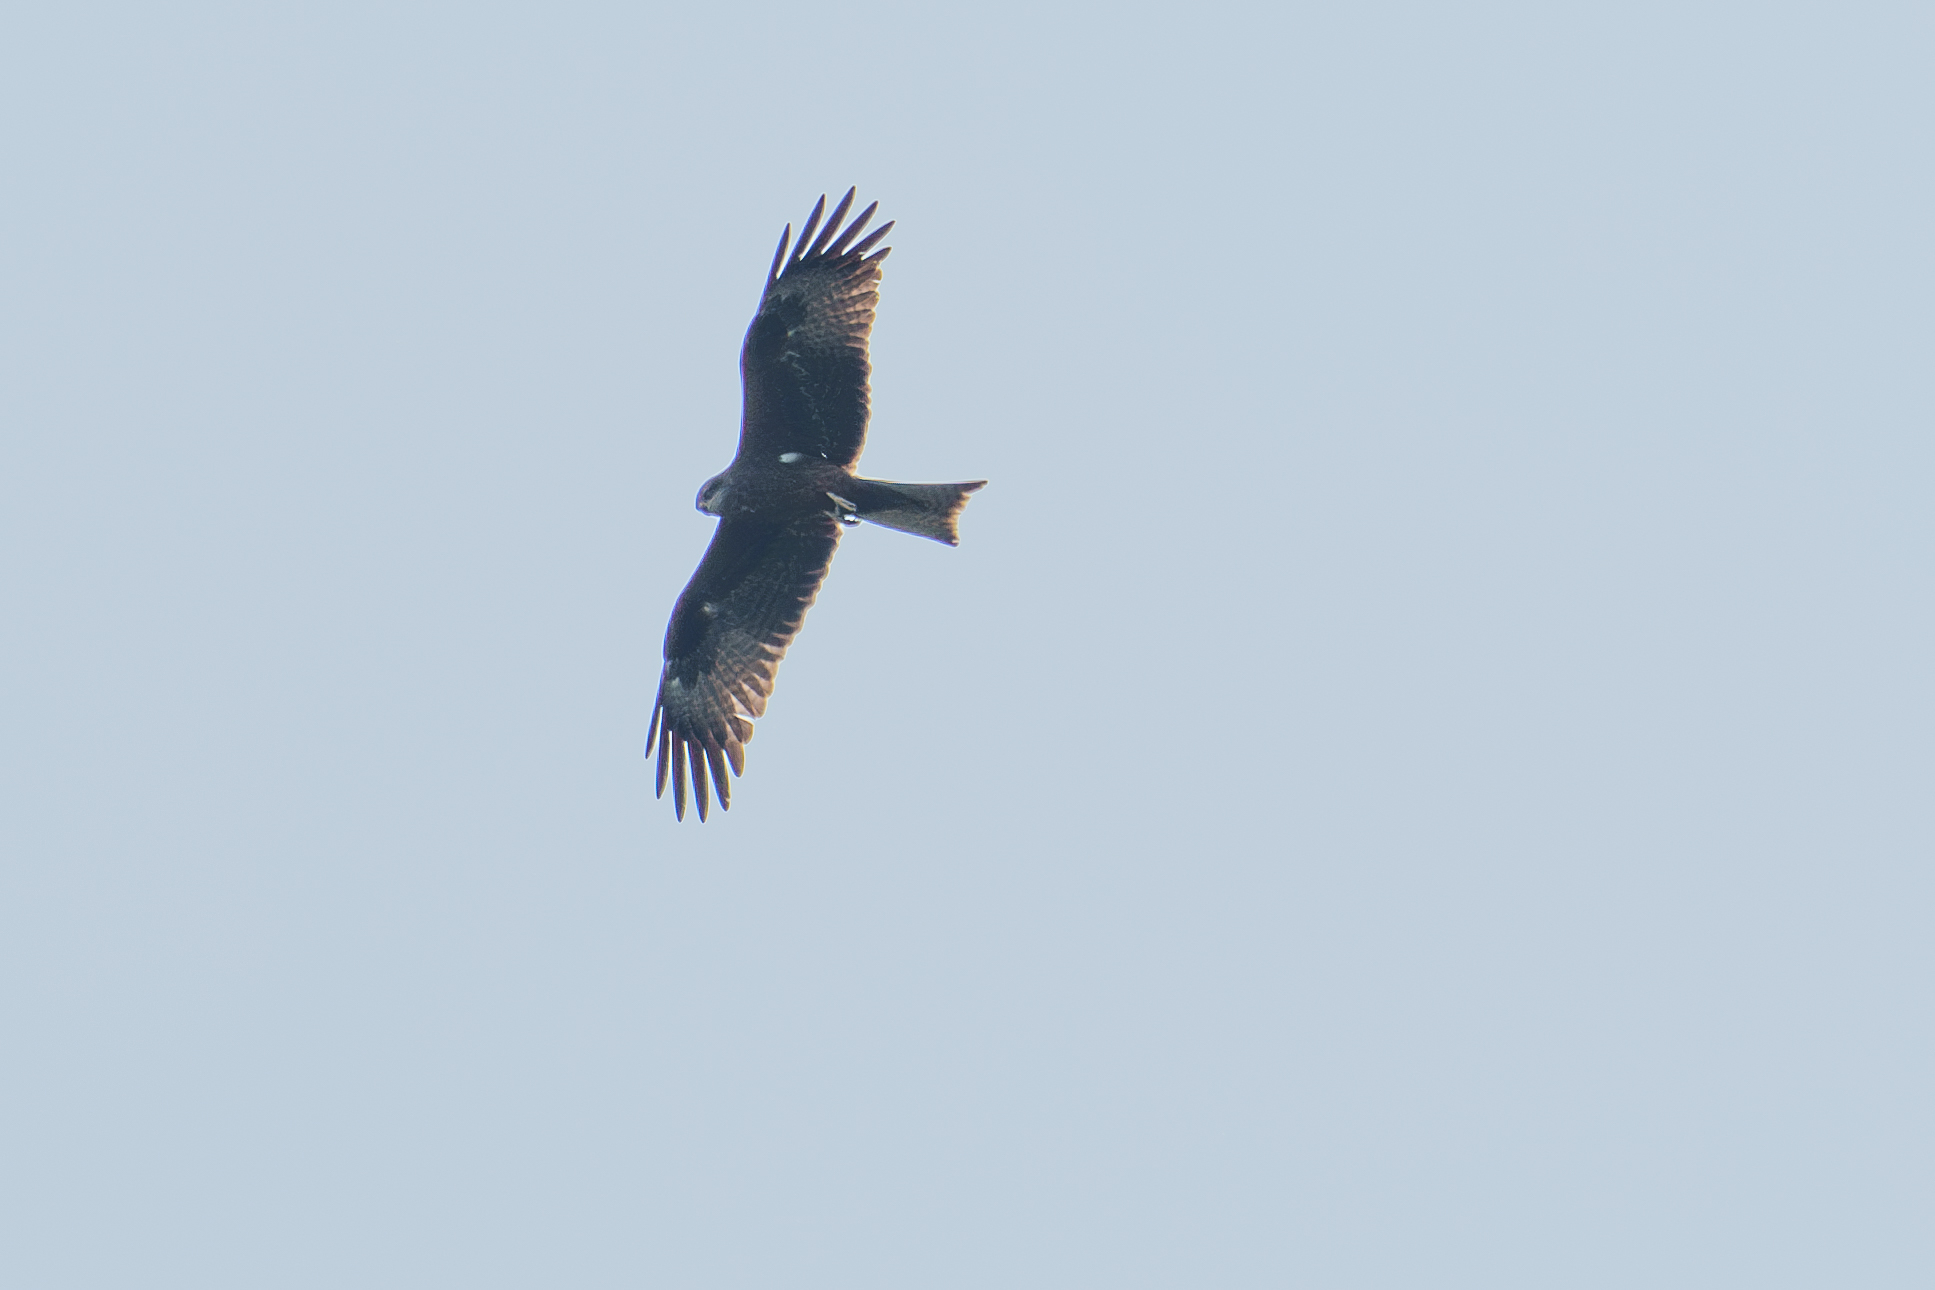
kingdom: Animalia
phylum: Chordata
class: Aves
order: Accipitriformes
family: Accipitridae
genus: Milvus
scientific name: Milvus migrans
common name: Black kite
